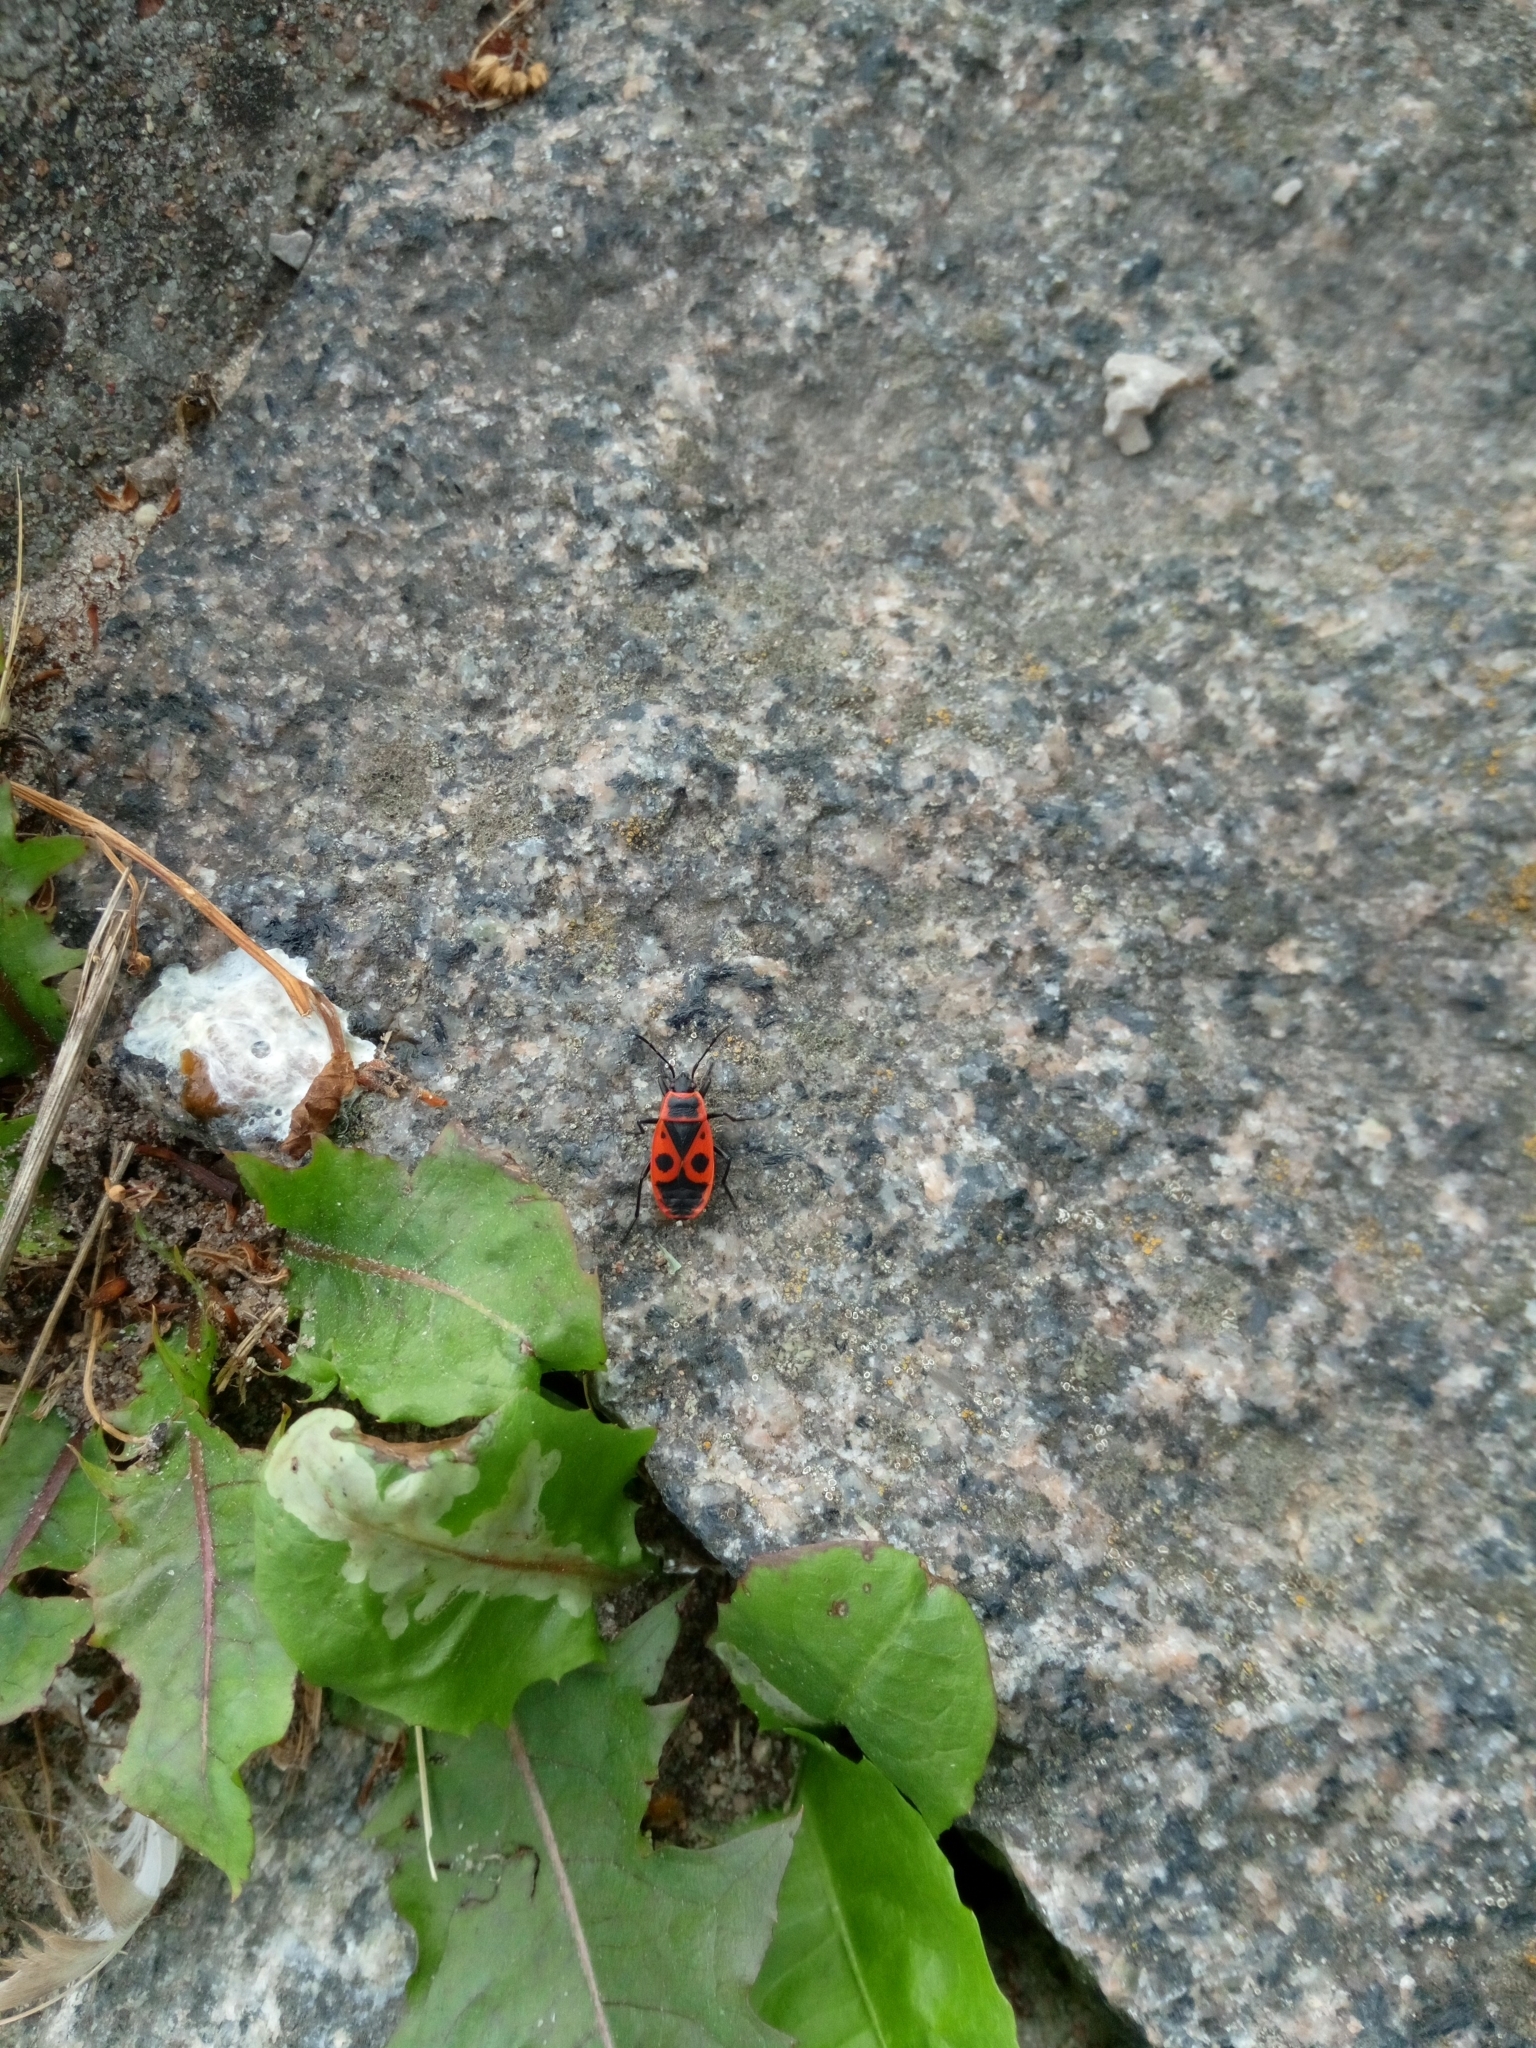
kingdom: Animalia
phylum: Arthropoda
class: Insecta
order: Hemiptera
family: Pyrrhocoridae
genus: Pyrrhocoris
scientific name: Pyrrhocoris apterus
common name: Firebug
